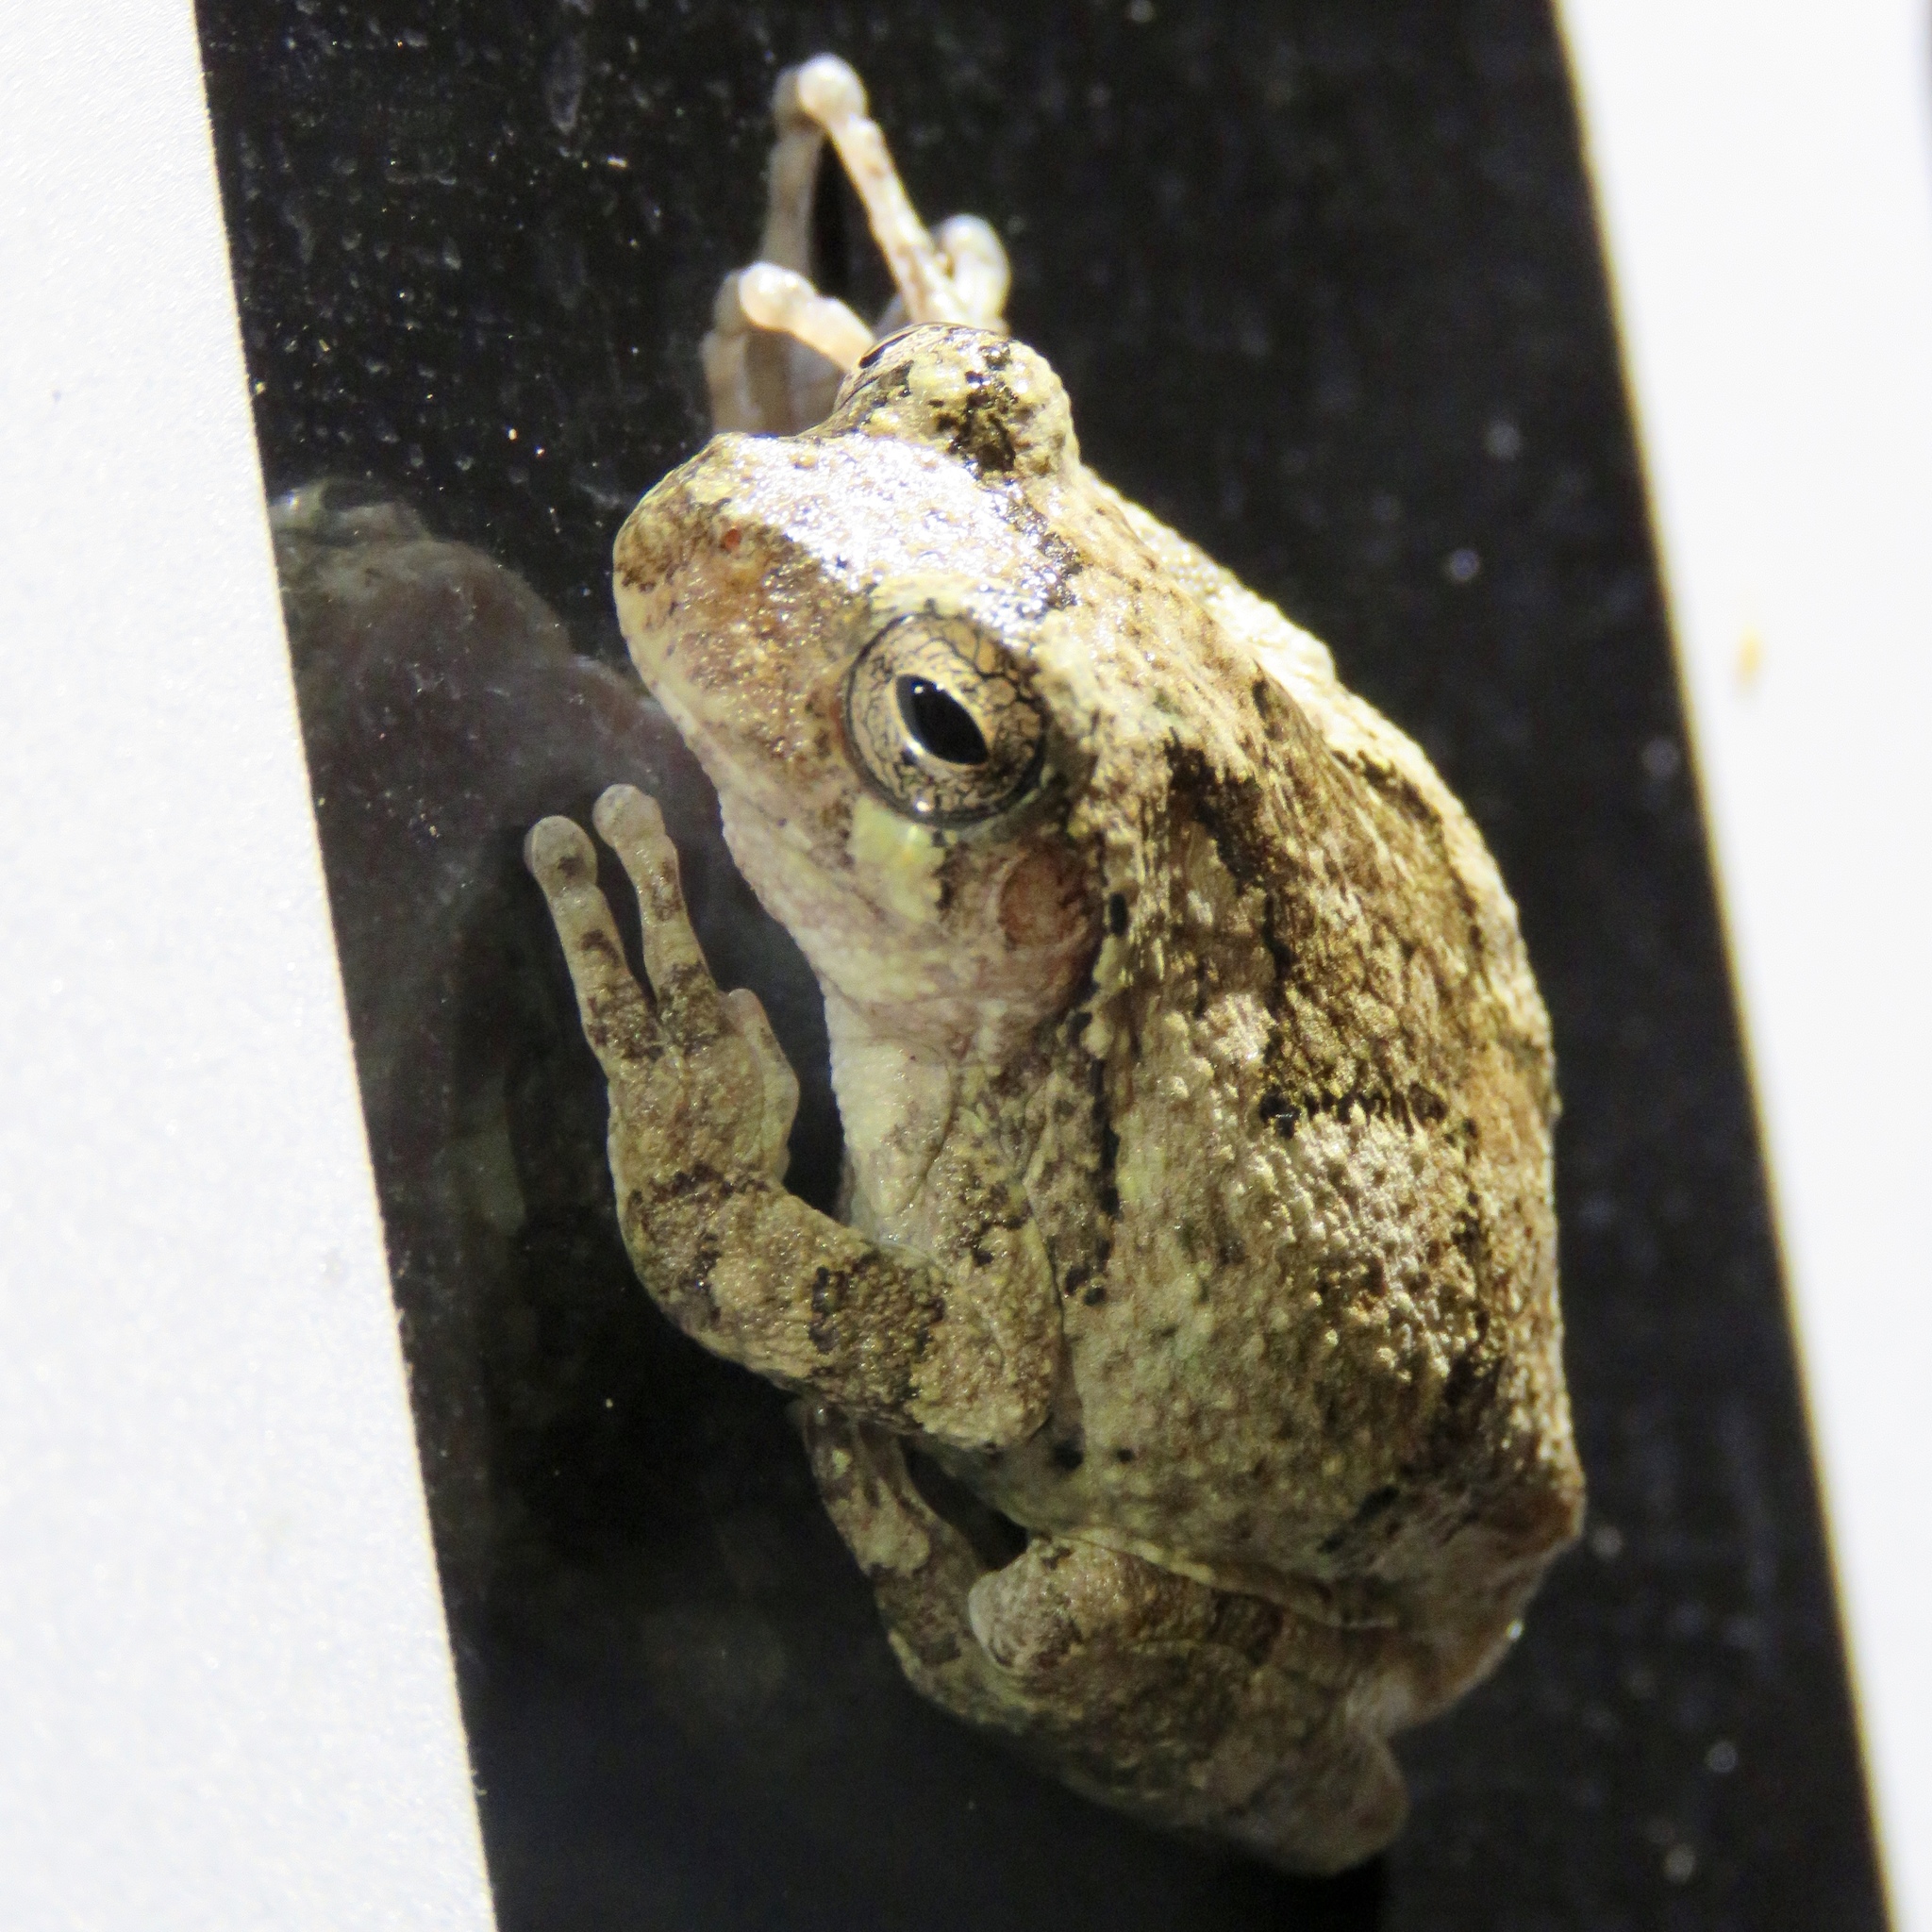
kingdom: Animalia
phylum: Chordata
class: Amphibia
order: Anura
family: Hylidae
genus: Hyla
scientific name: Hyla
